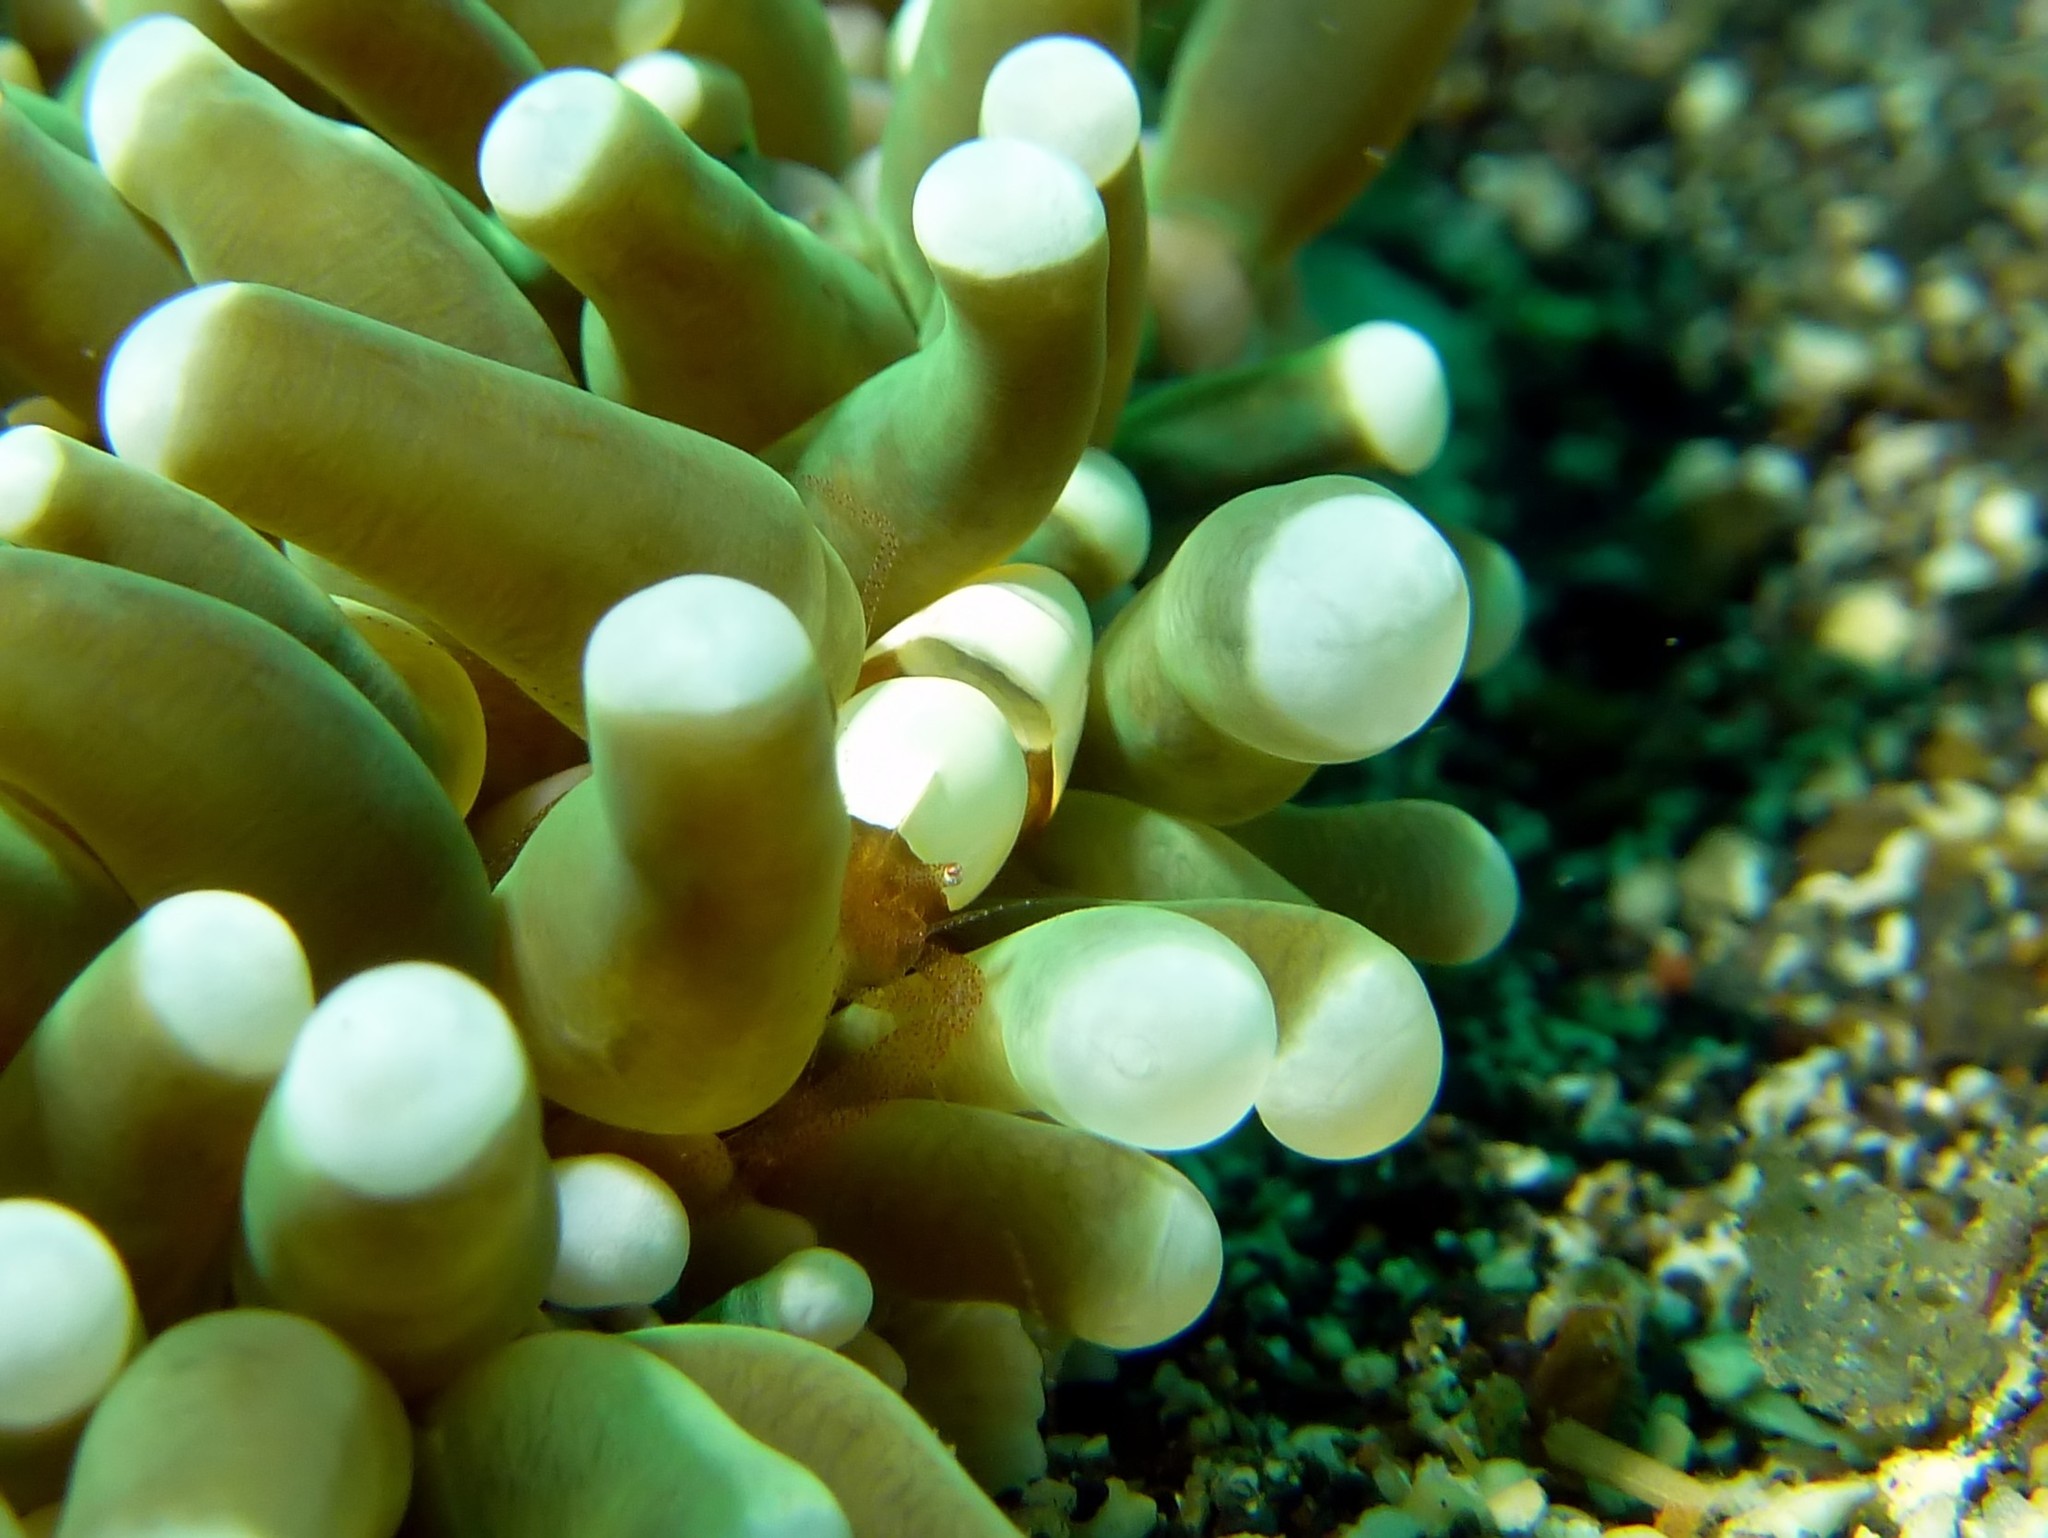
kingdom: Animalia
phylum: Arthropoda
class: Malacostraca
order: Decapoda
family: Palaemonidae
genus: Hamopontonia
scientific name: Hamopontonia fungicola
